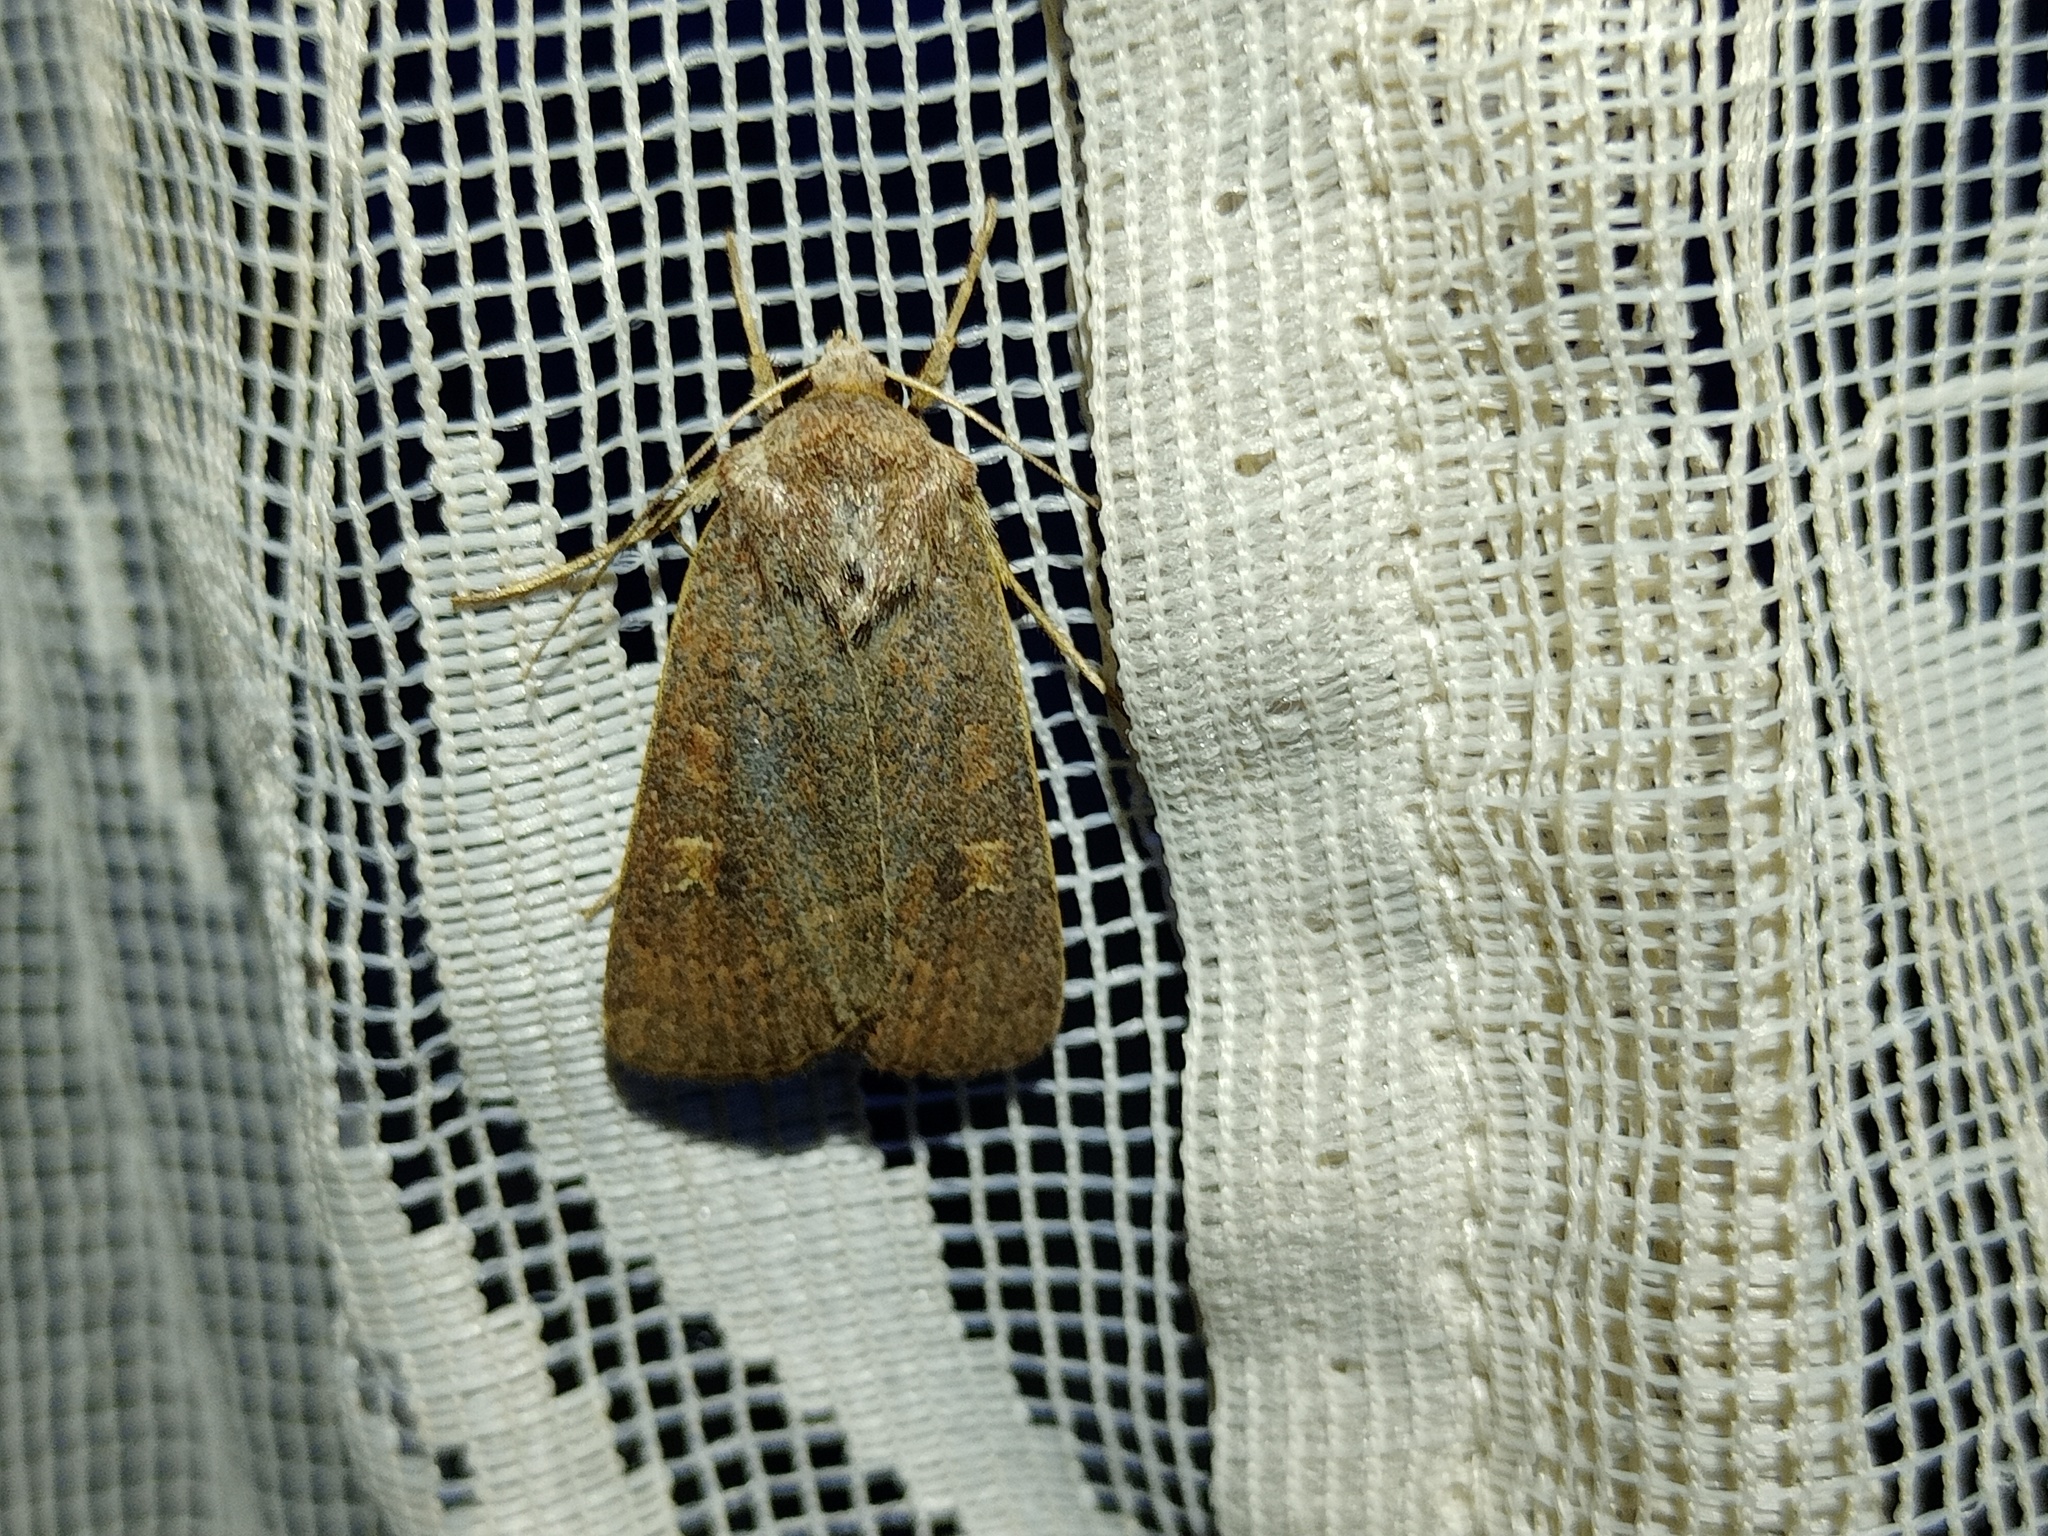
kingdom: Animalia
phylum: Arthropoda
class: Insecta
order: Lepidoptera
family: Noctuidae
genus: Xestia
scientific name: Xestia xanthographa
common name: Square-spot rustic
